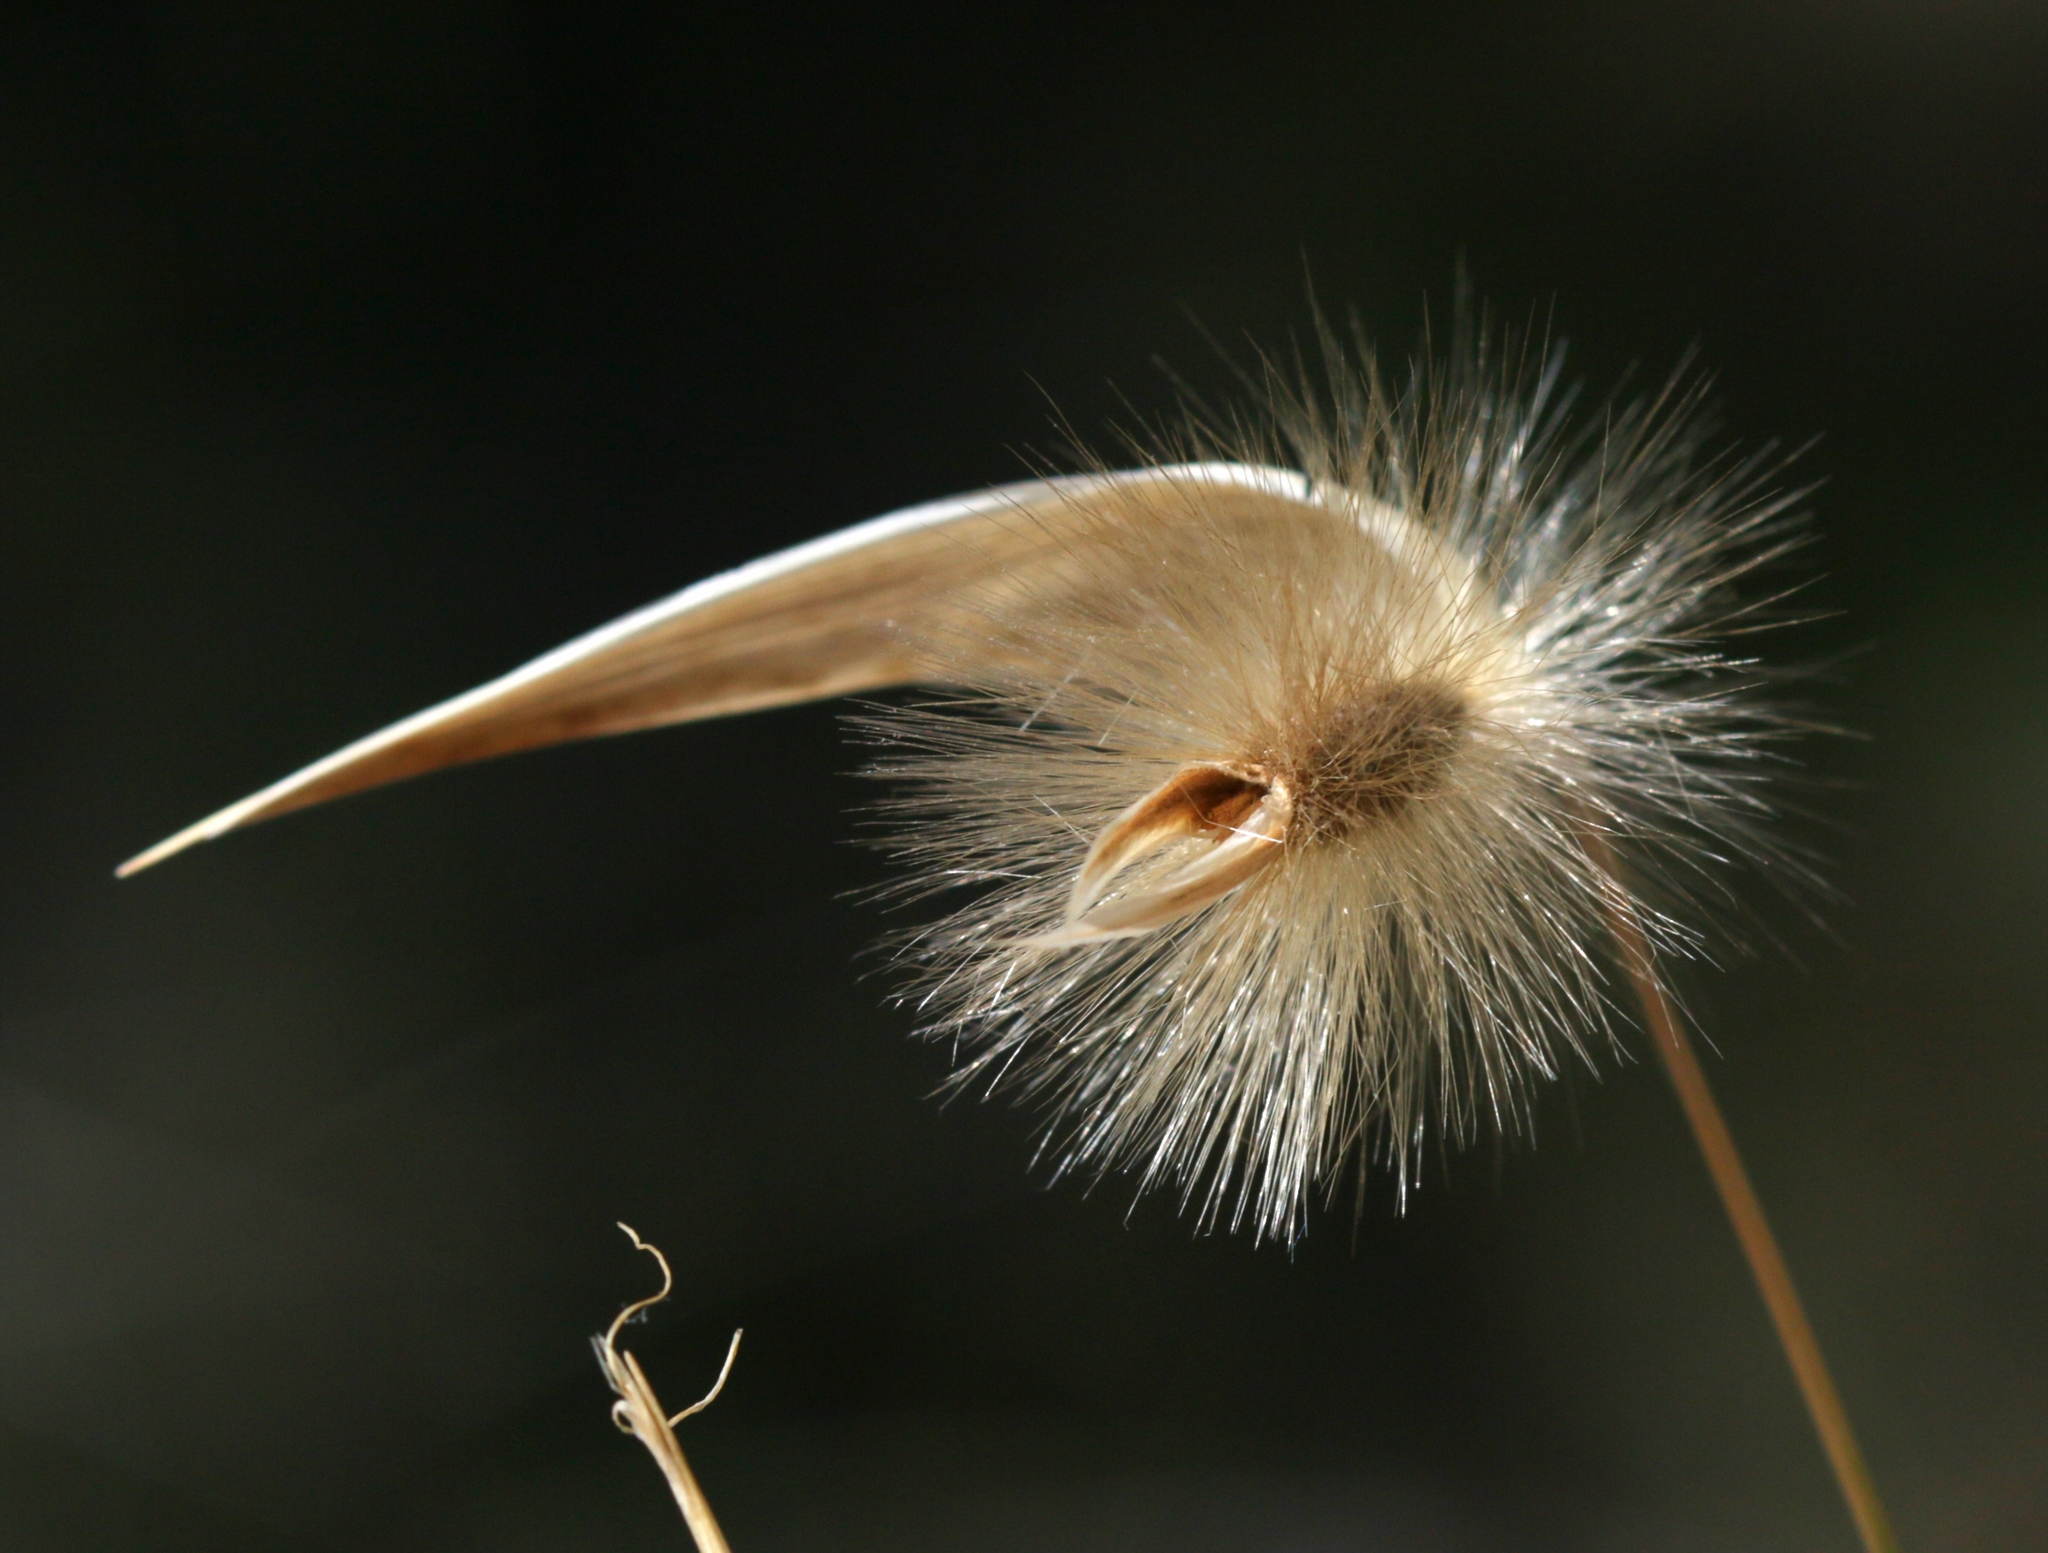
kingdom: Plantae
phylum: Tracheophyta
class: Liliopsida
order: Poales
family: Poaceae
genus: Lygeum
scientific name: Lygeum spartum
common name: Albardine
